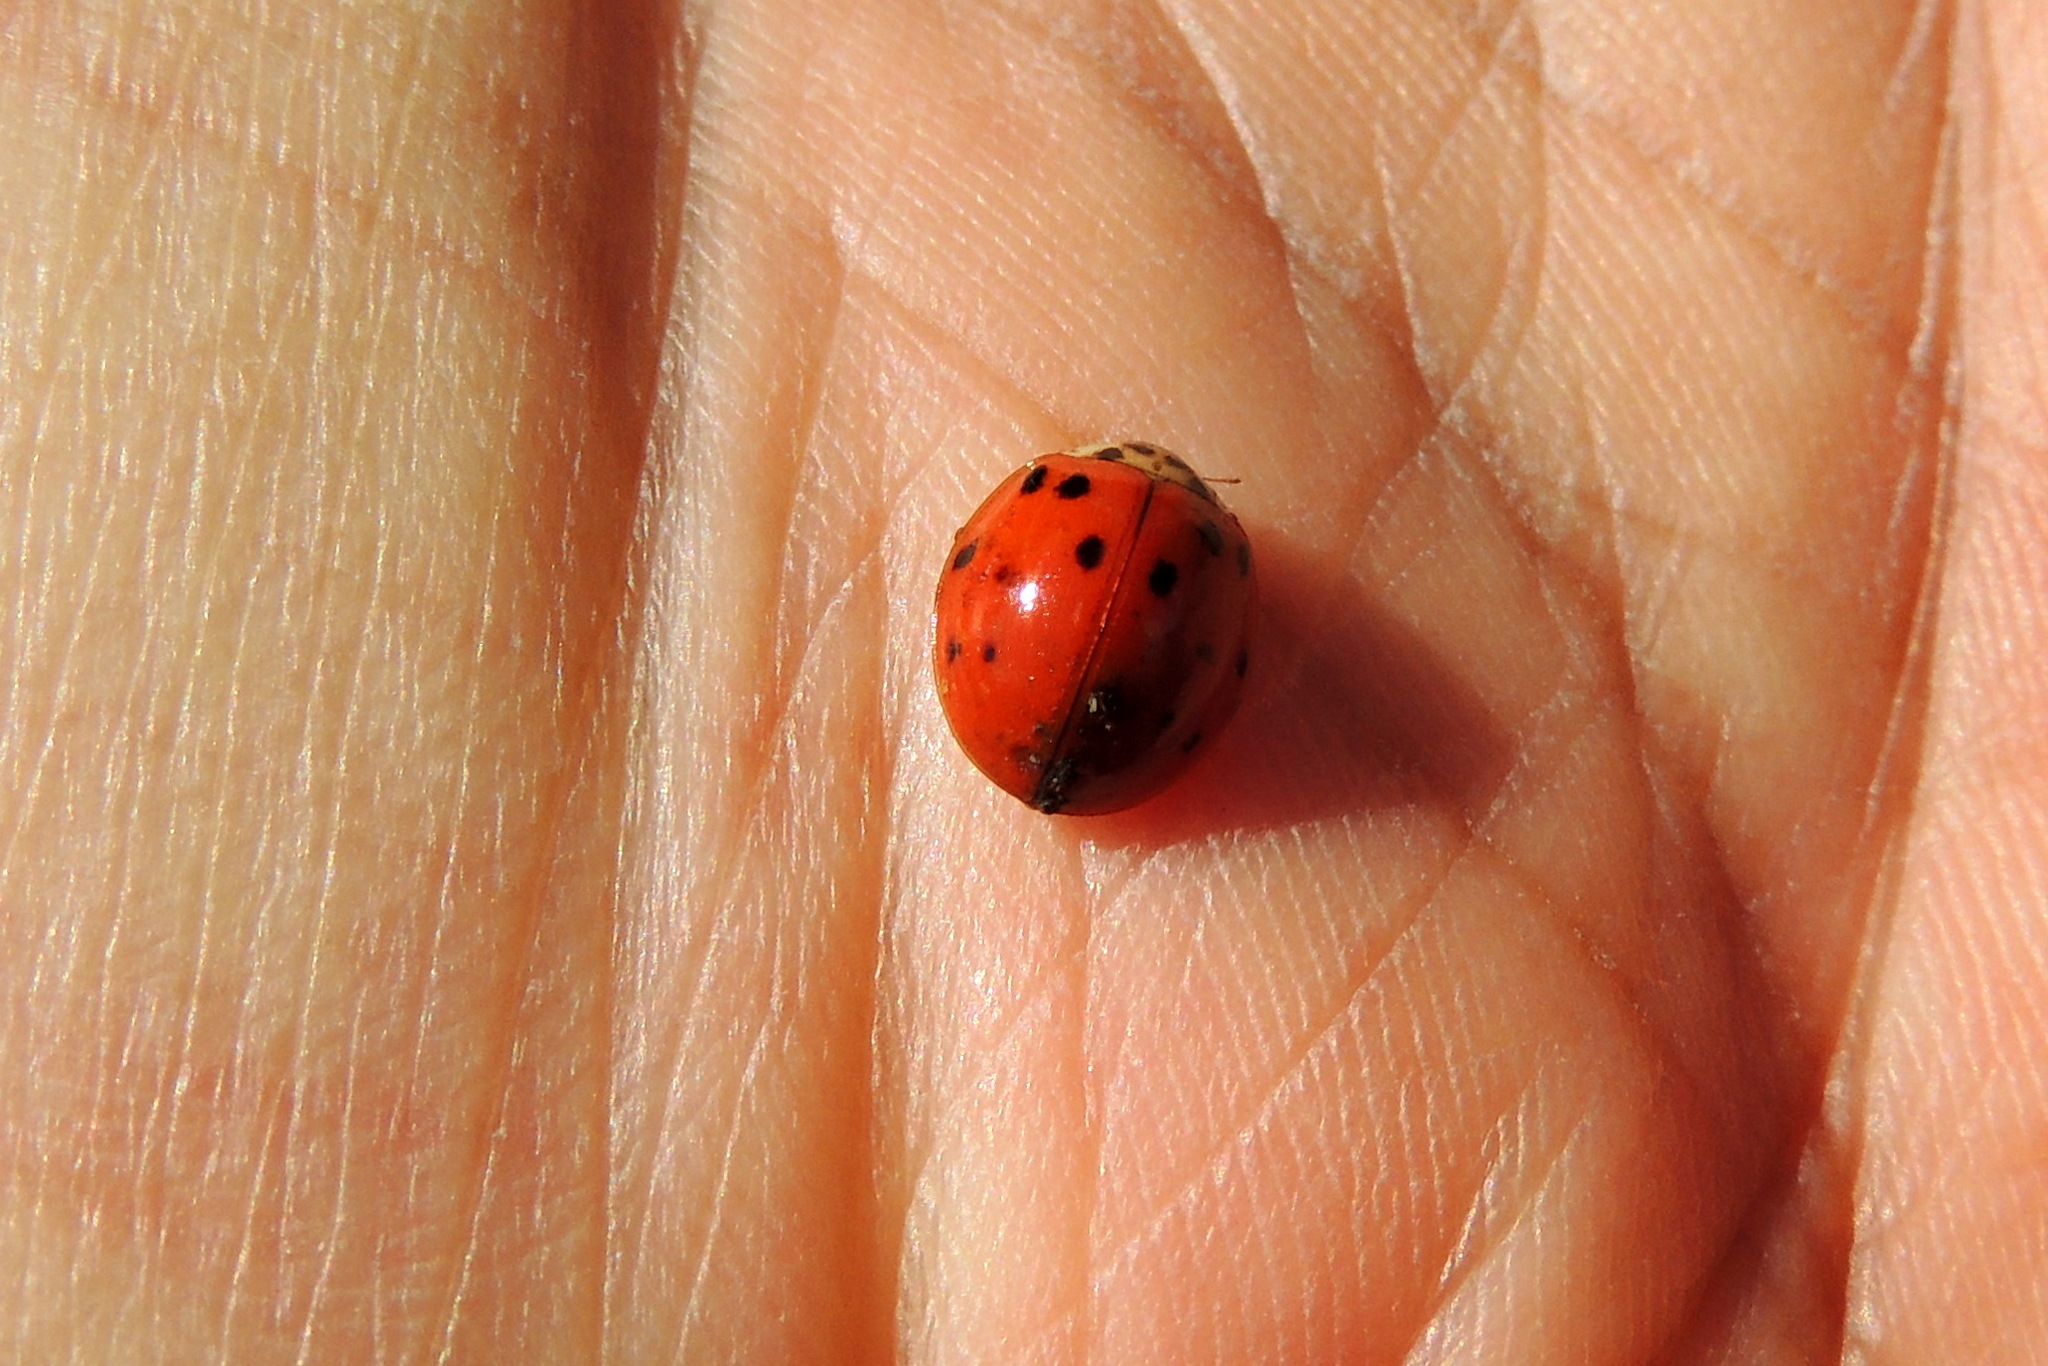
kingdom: Animalia
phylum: Arthropoda
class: Insecta
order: Coleoptera
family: Coccinellidae
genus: Harmonia
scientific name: Harmonia axyridis
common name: Harlequin ladybird
